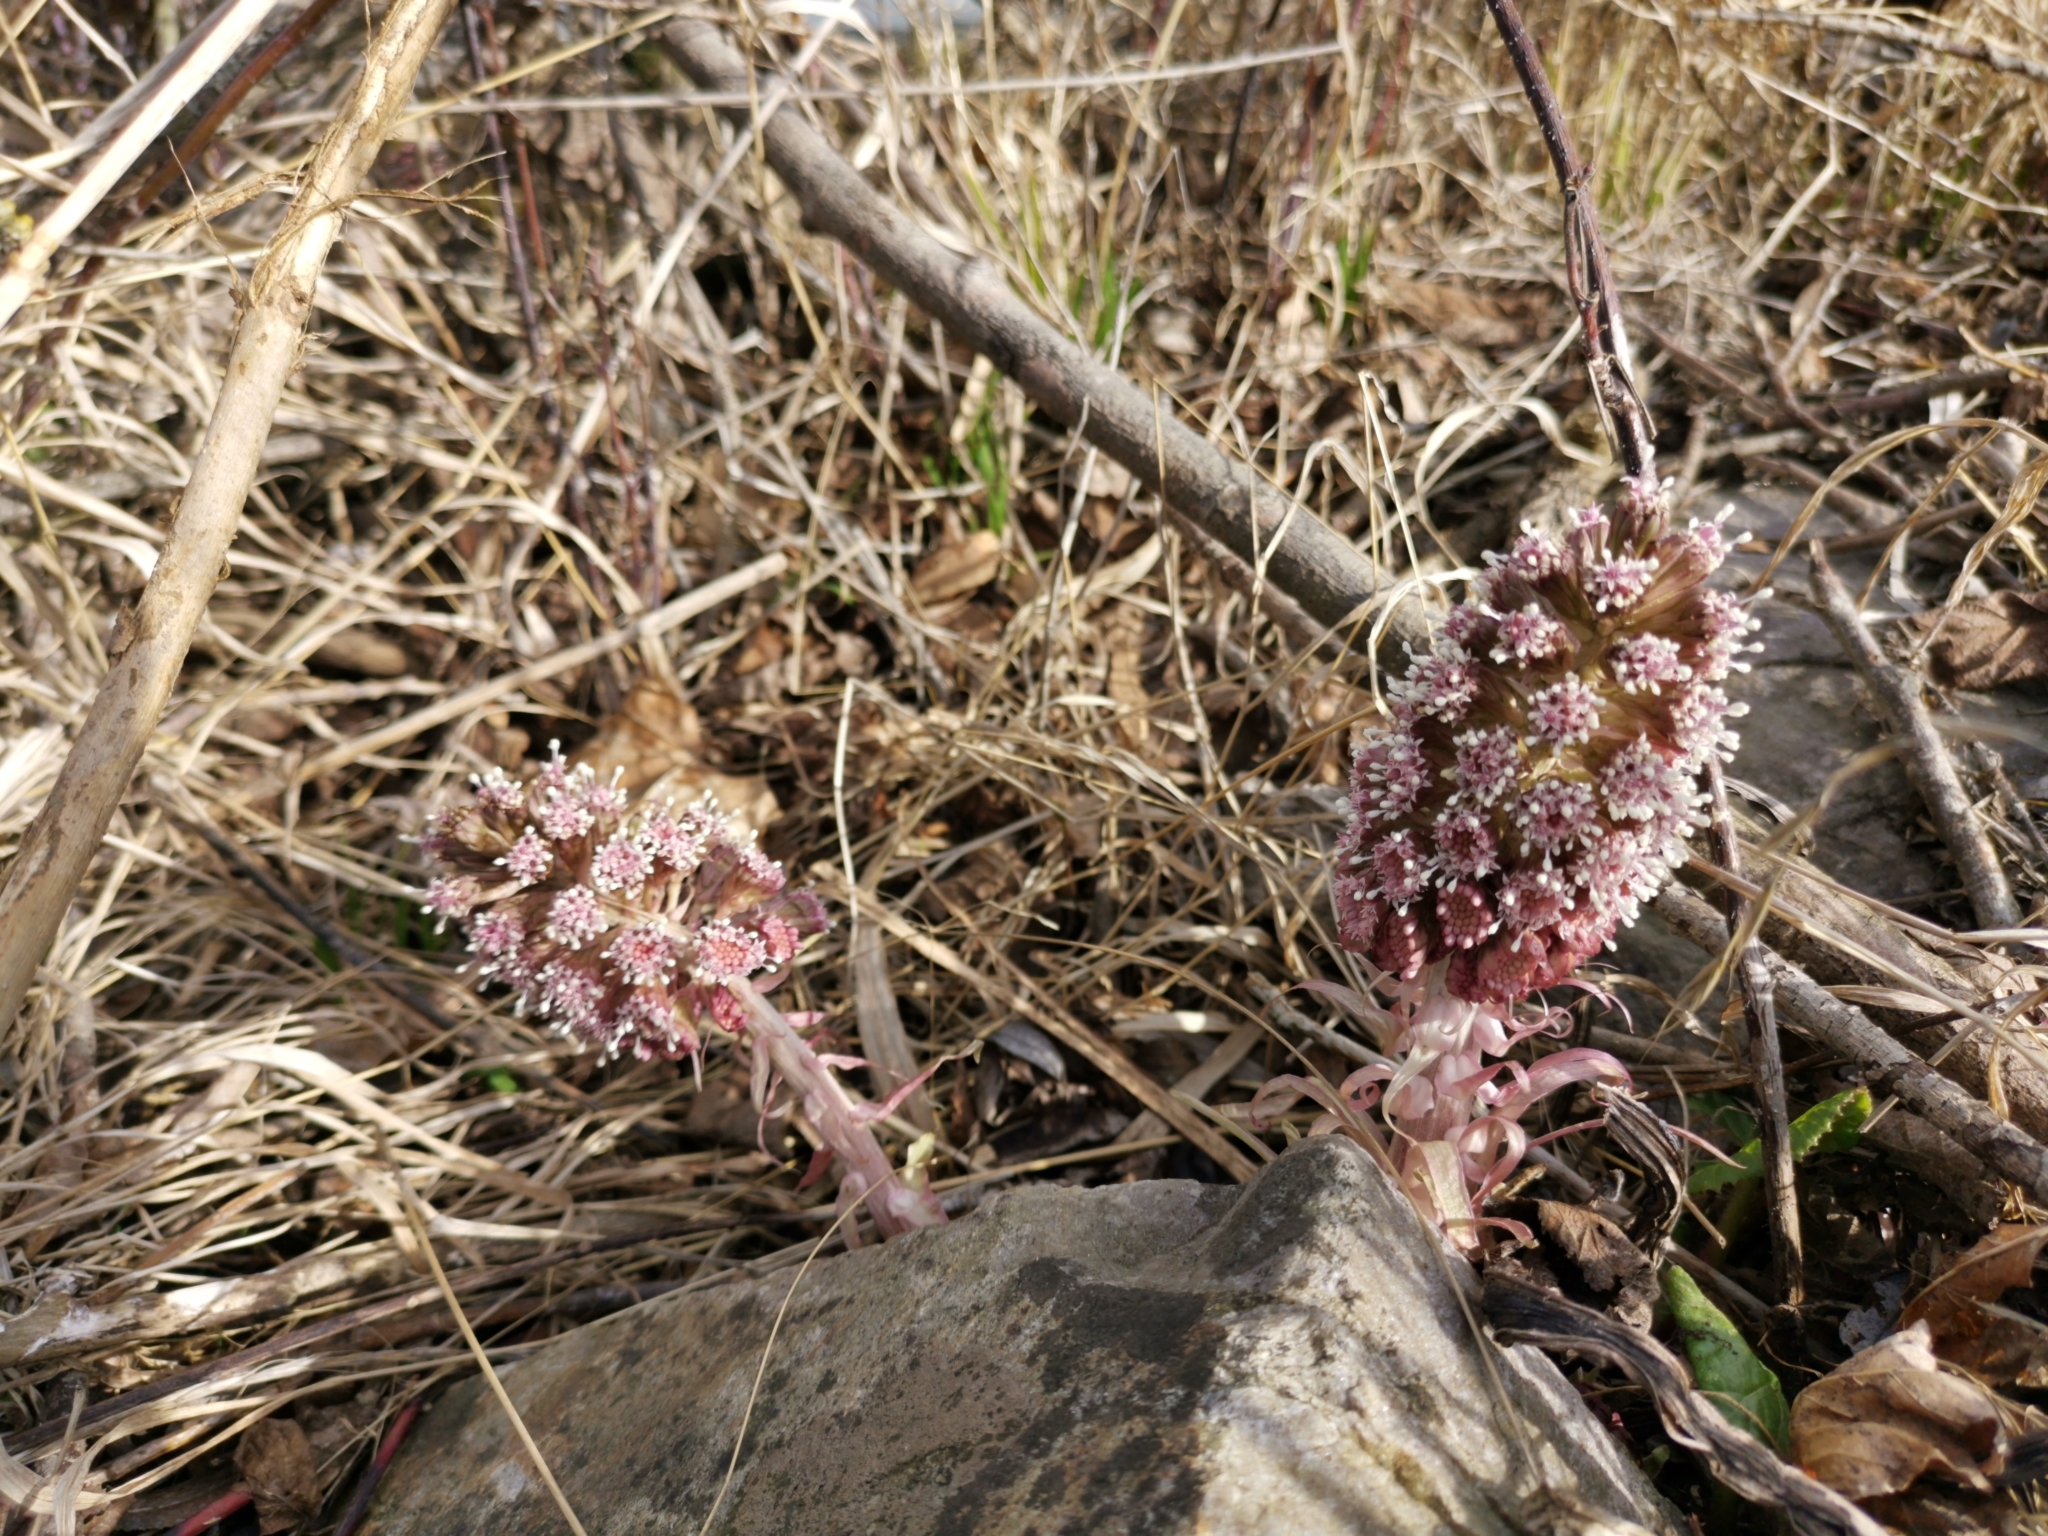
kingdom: Plantae
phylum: Tracheophyta
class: Magnoliopsida
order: Asterales
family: Asteraceae
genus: Petasites
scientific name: Petasites hybridus
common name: Butterbur
